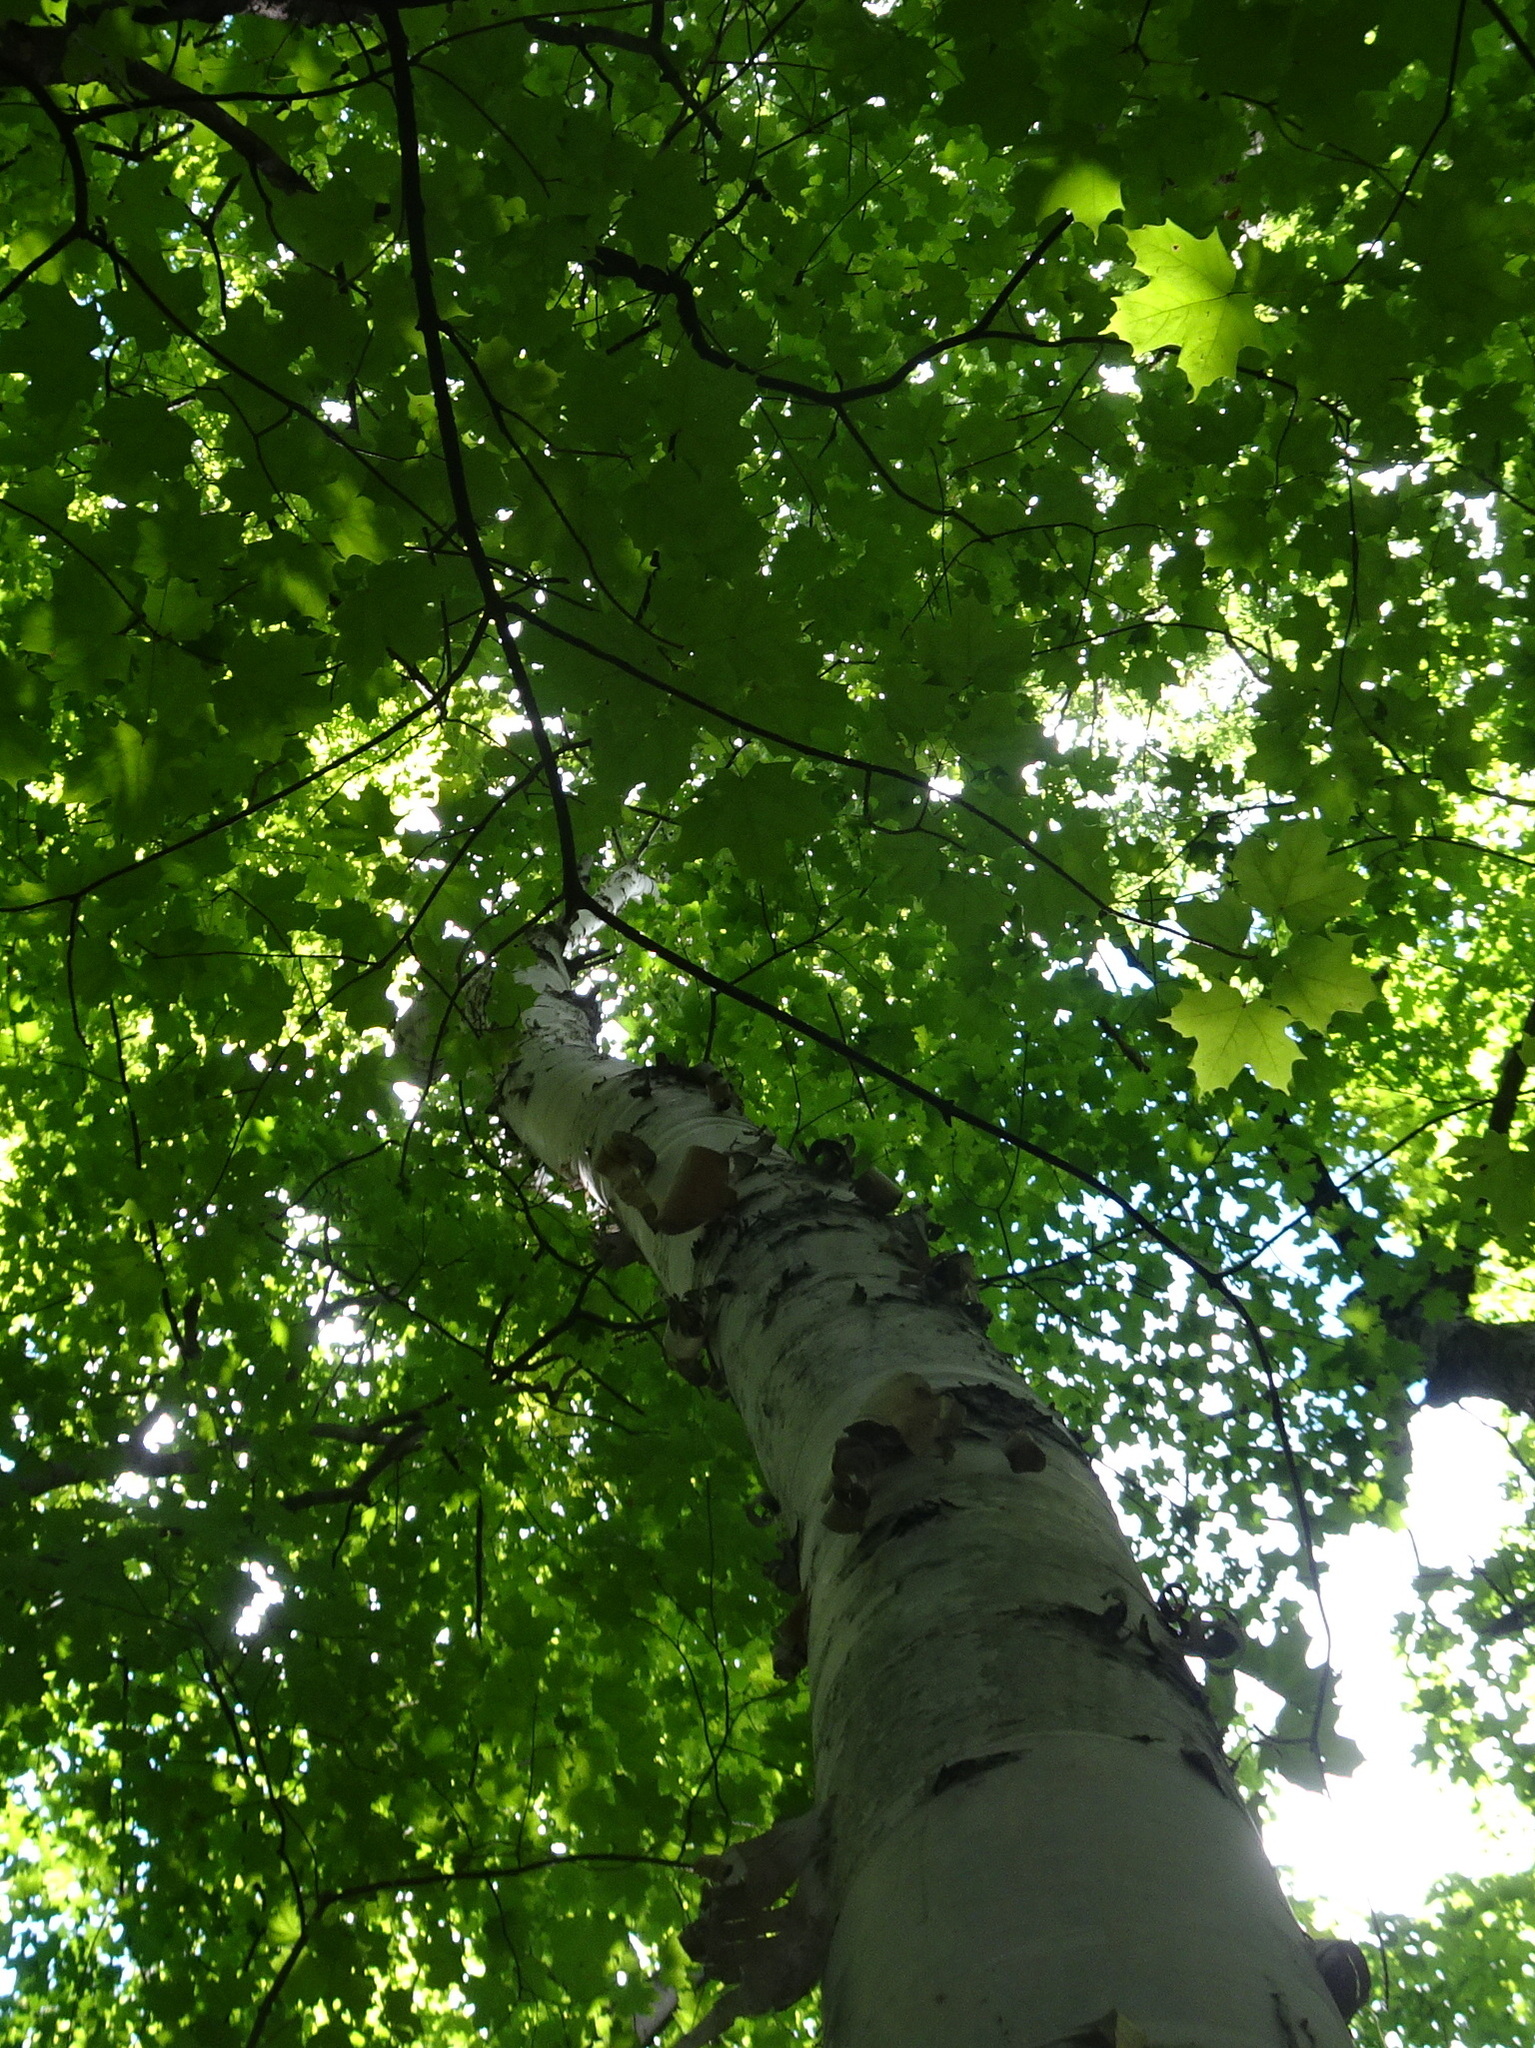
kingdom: Plantae
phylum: Tracheophyta
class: Magnoliopsida
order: Fagales
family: Betulaceae
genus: Betula
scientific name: Betula papyrifera
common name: Paper birch
